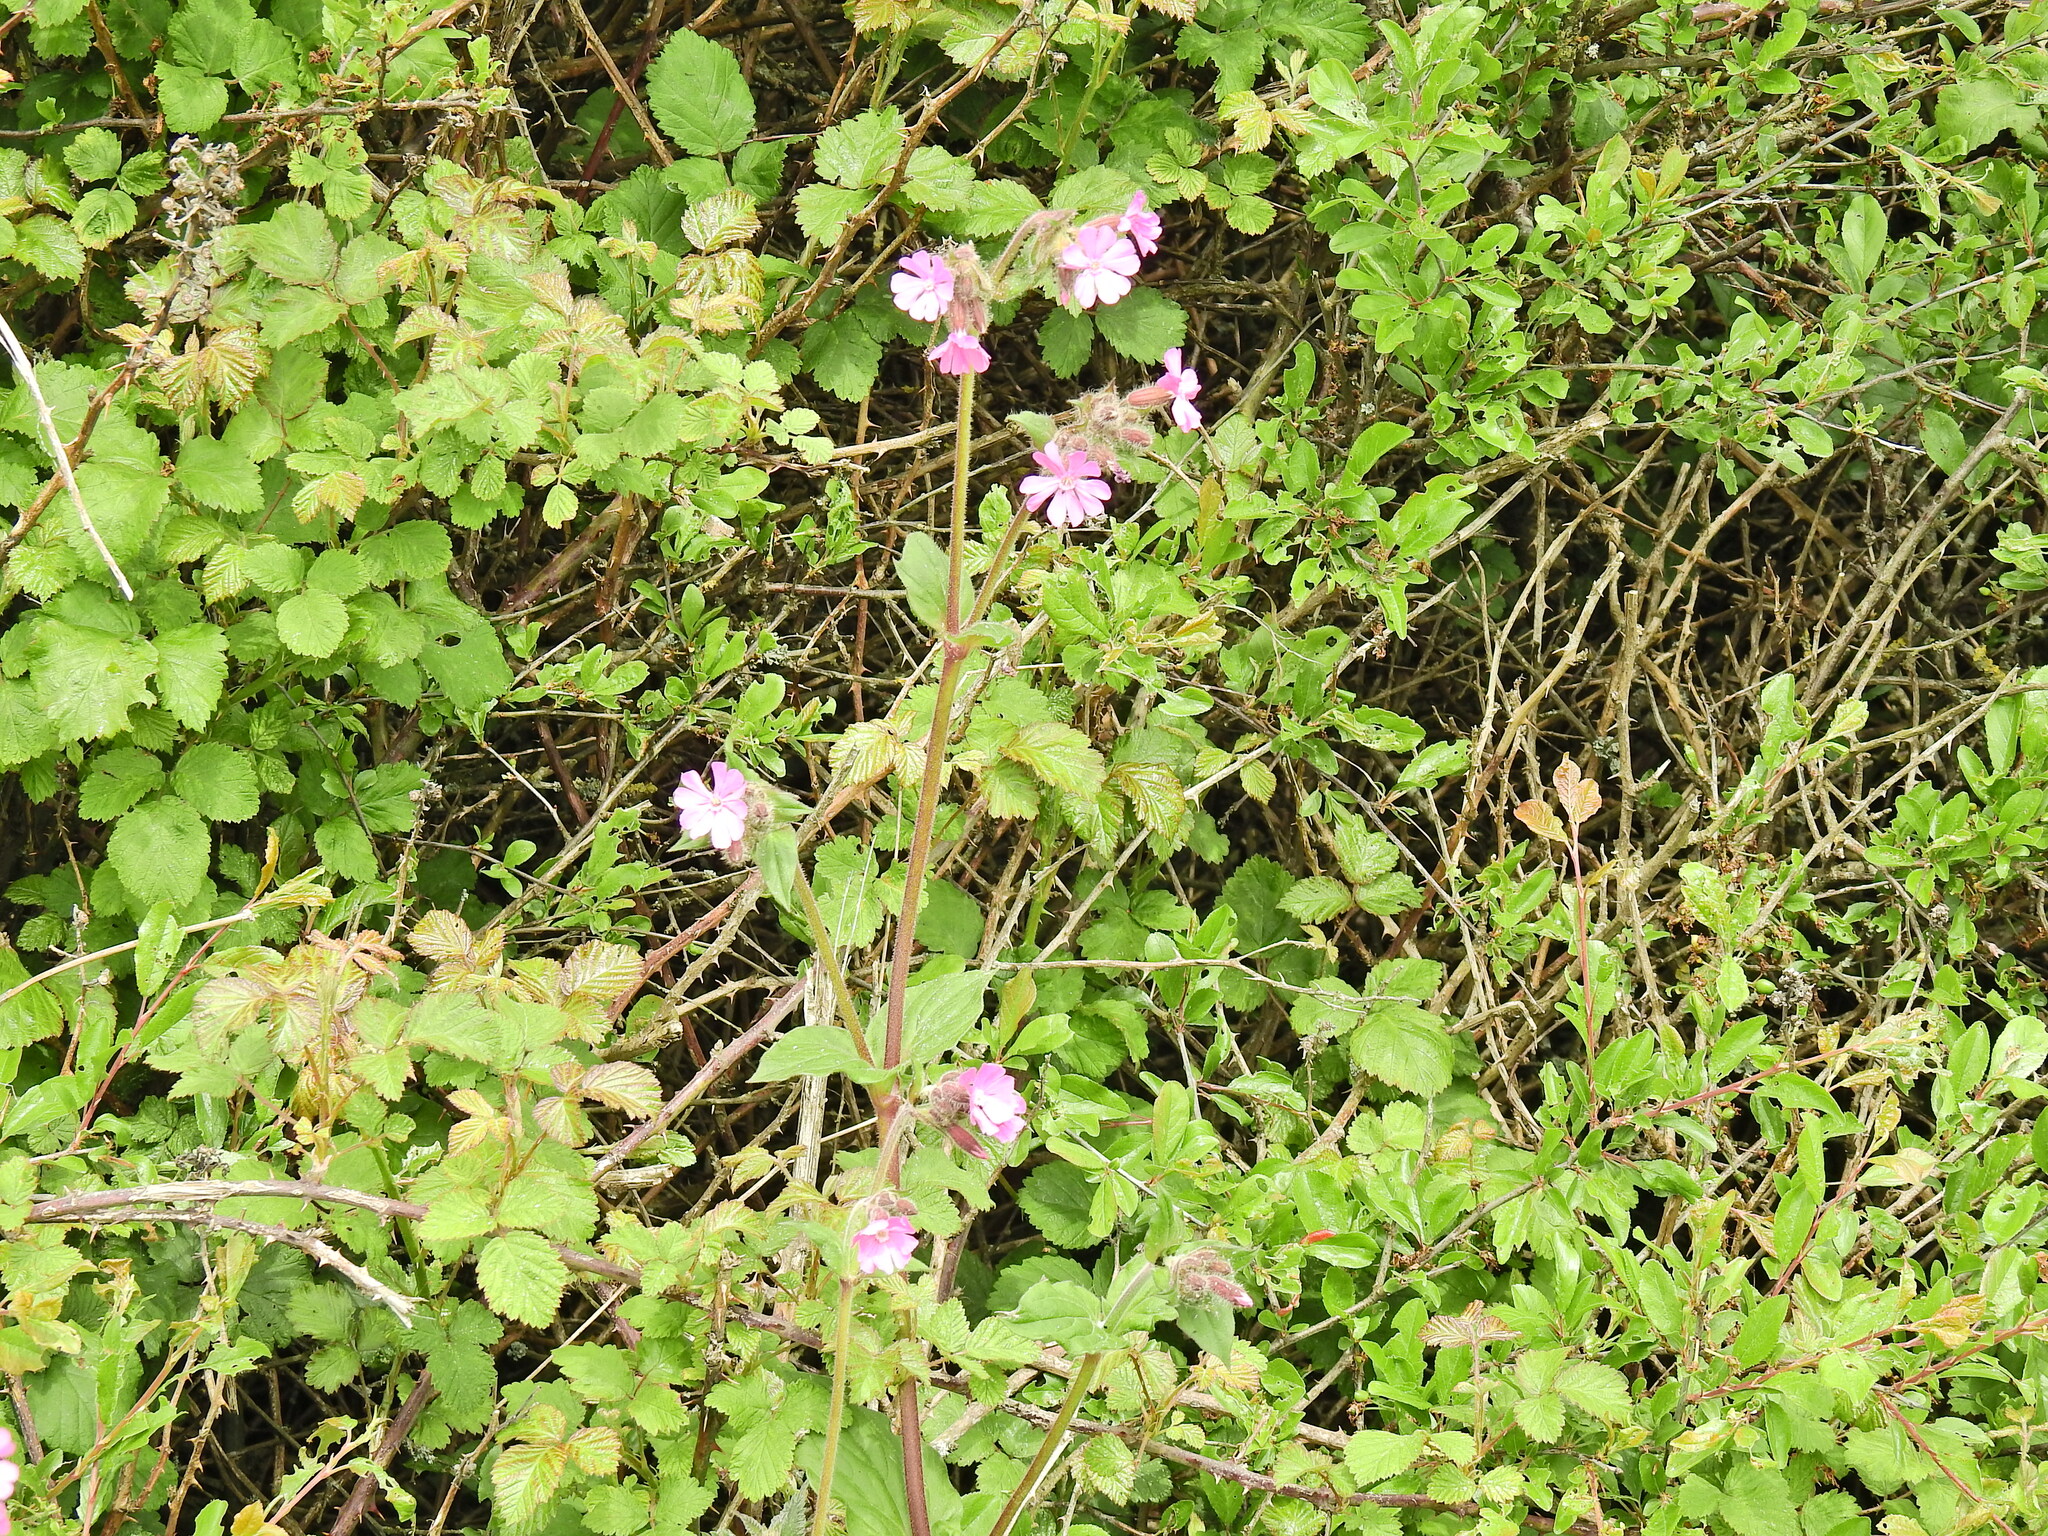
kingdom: Plantae
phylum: Tracheophyta
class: Magnoliopsida
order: Caryophyllales
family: Caryophyllaceae
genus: Silene
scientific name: Silene dioica
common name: Red campion
